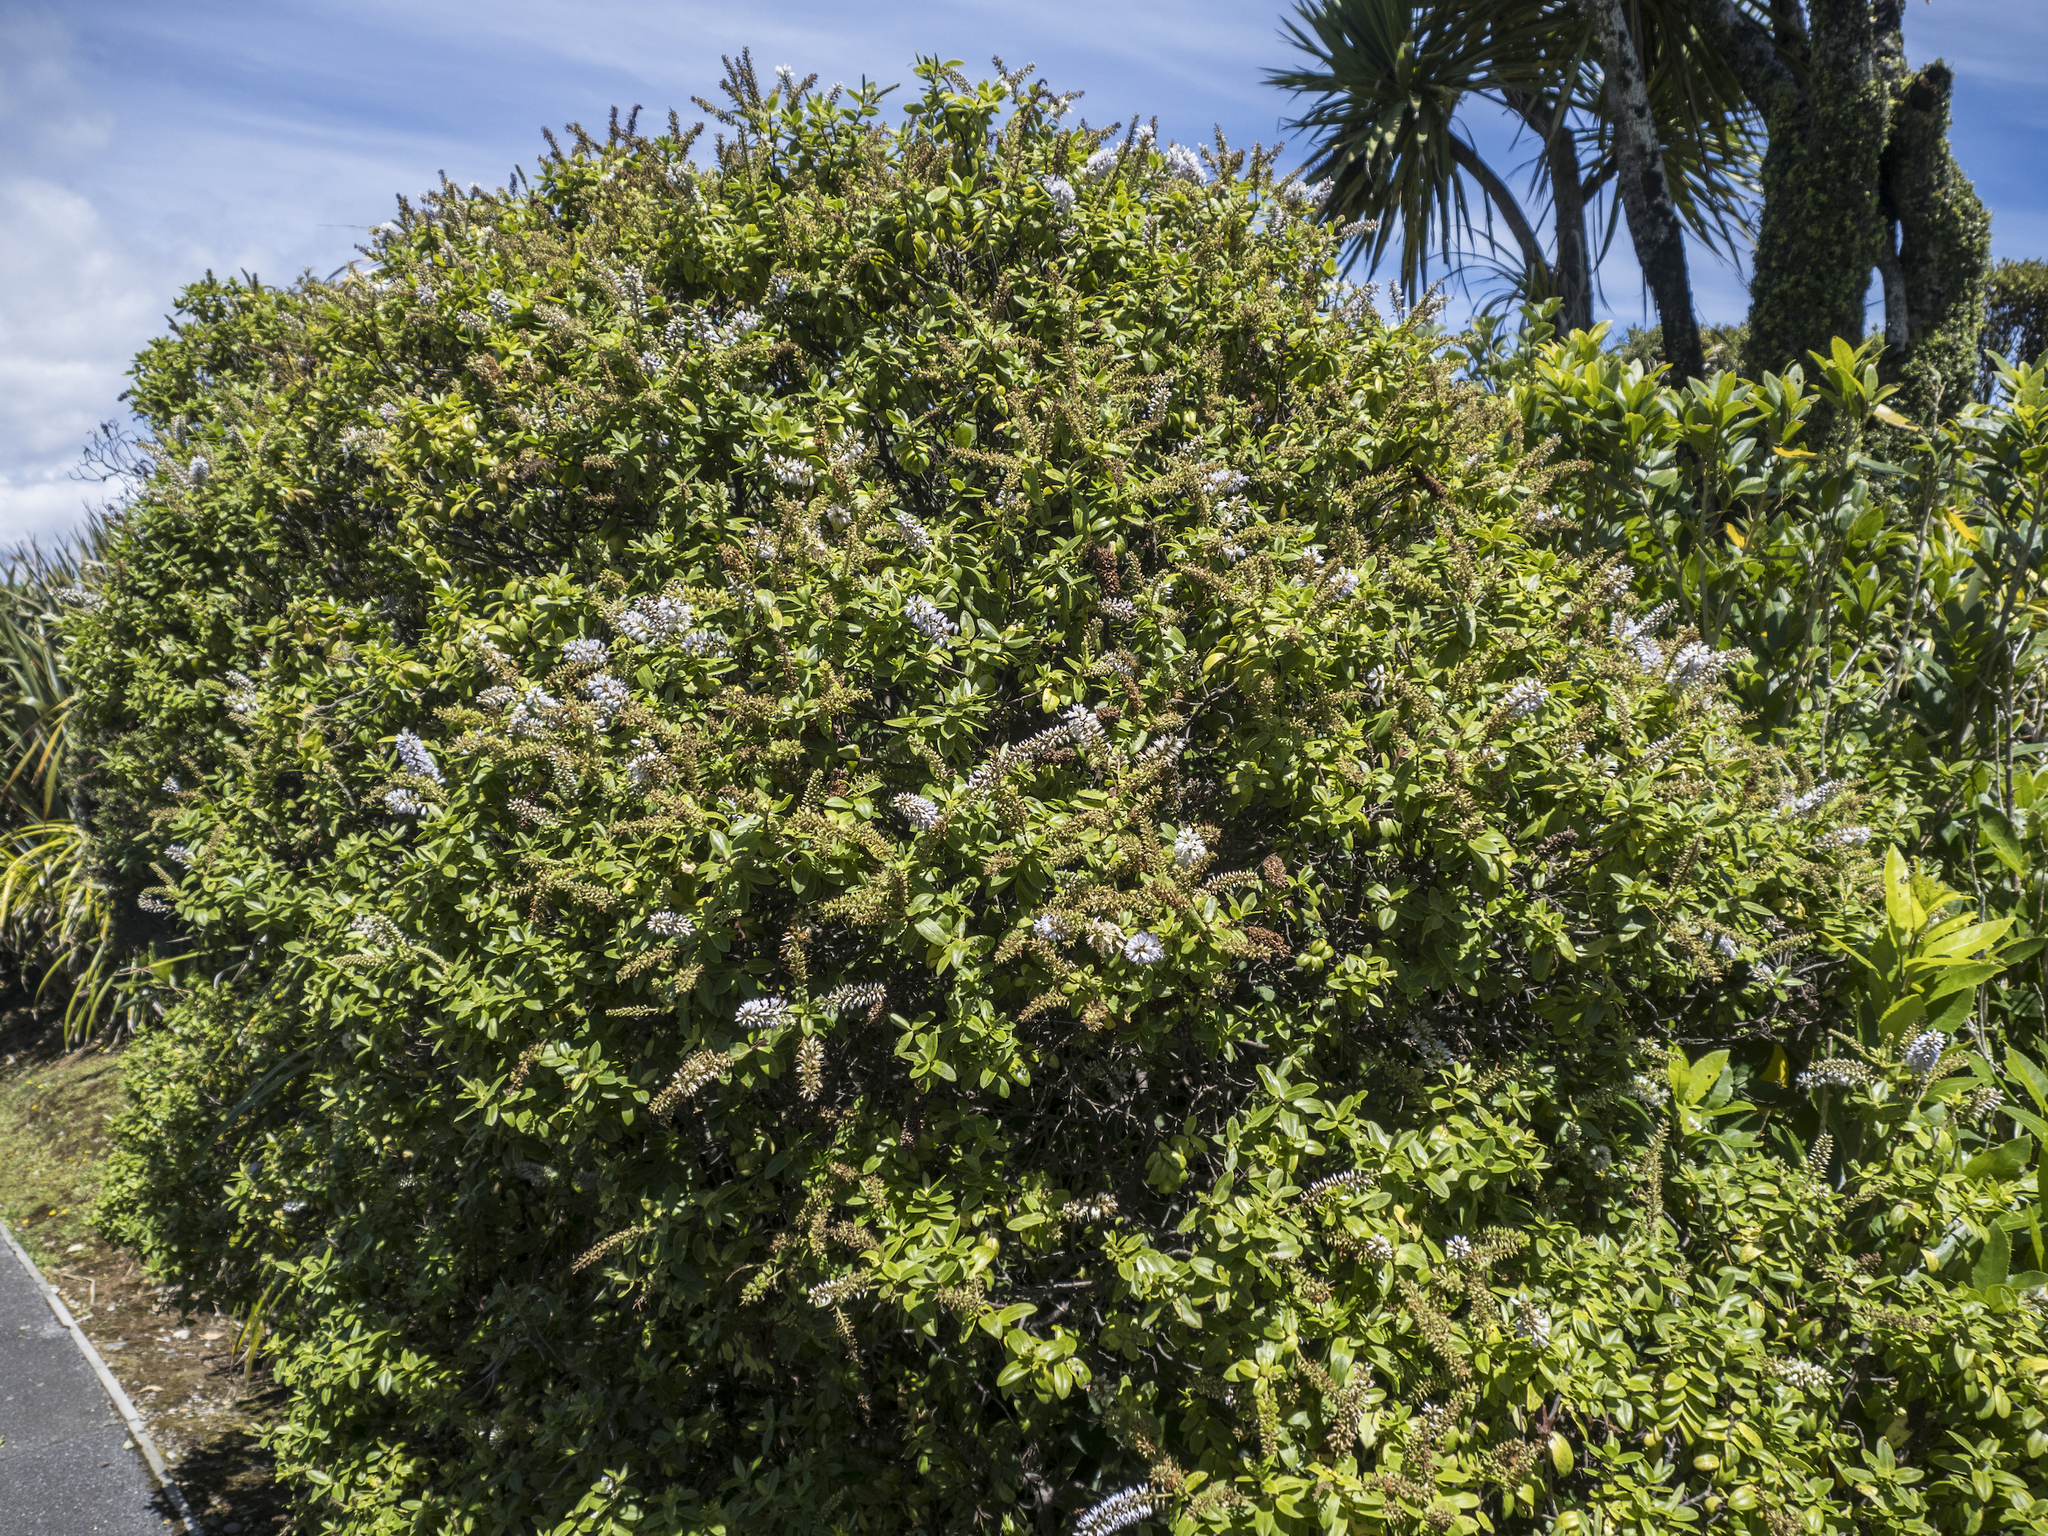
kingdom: Plantae
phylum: Tracheophyta
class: Magnoliopsida
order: Lamiales
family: Plantaginaceae
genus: Veronica
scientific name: Veronica elliptica
